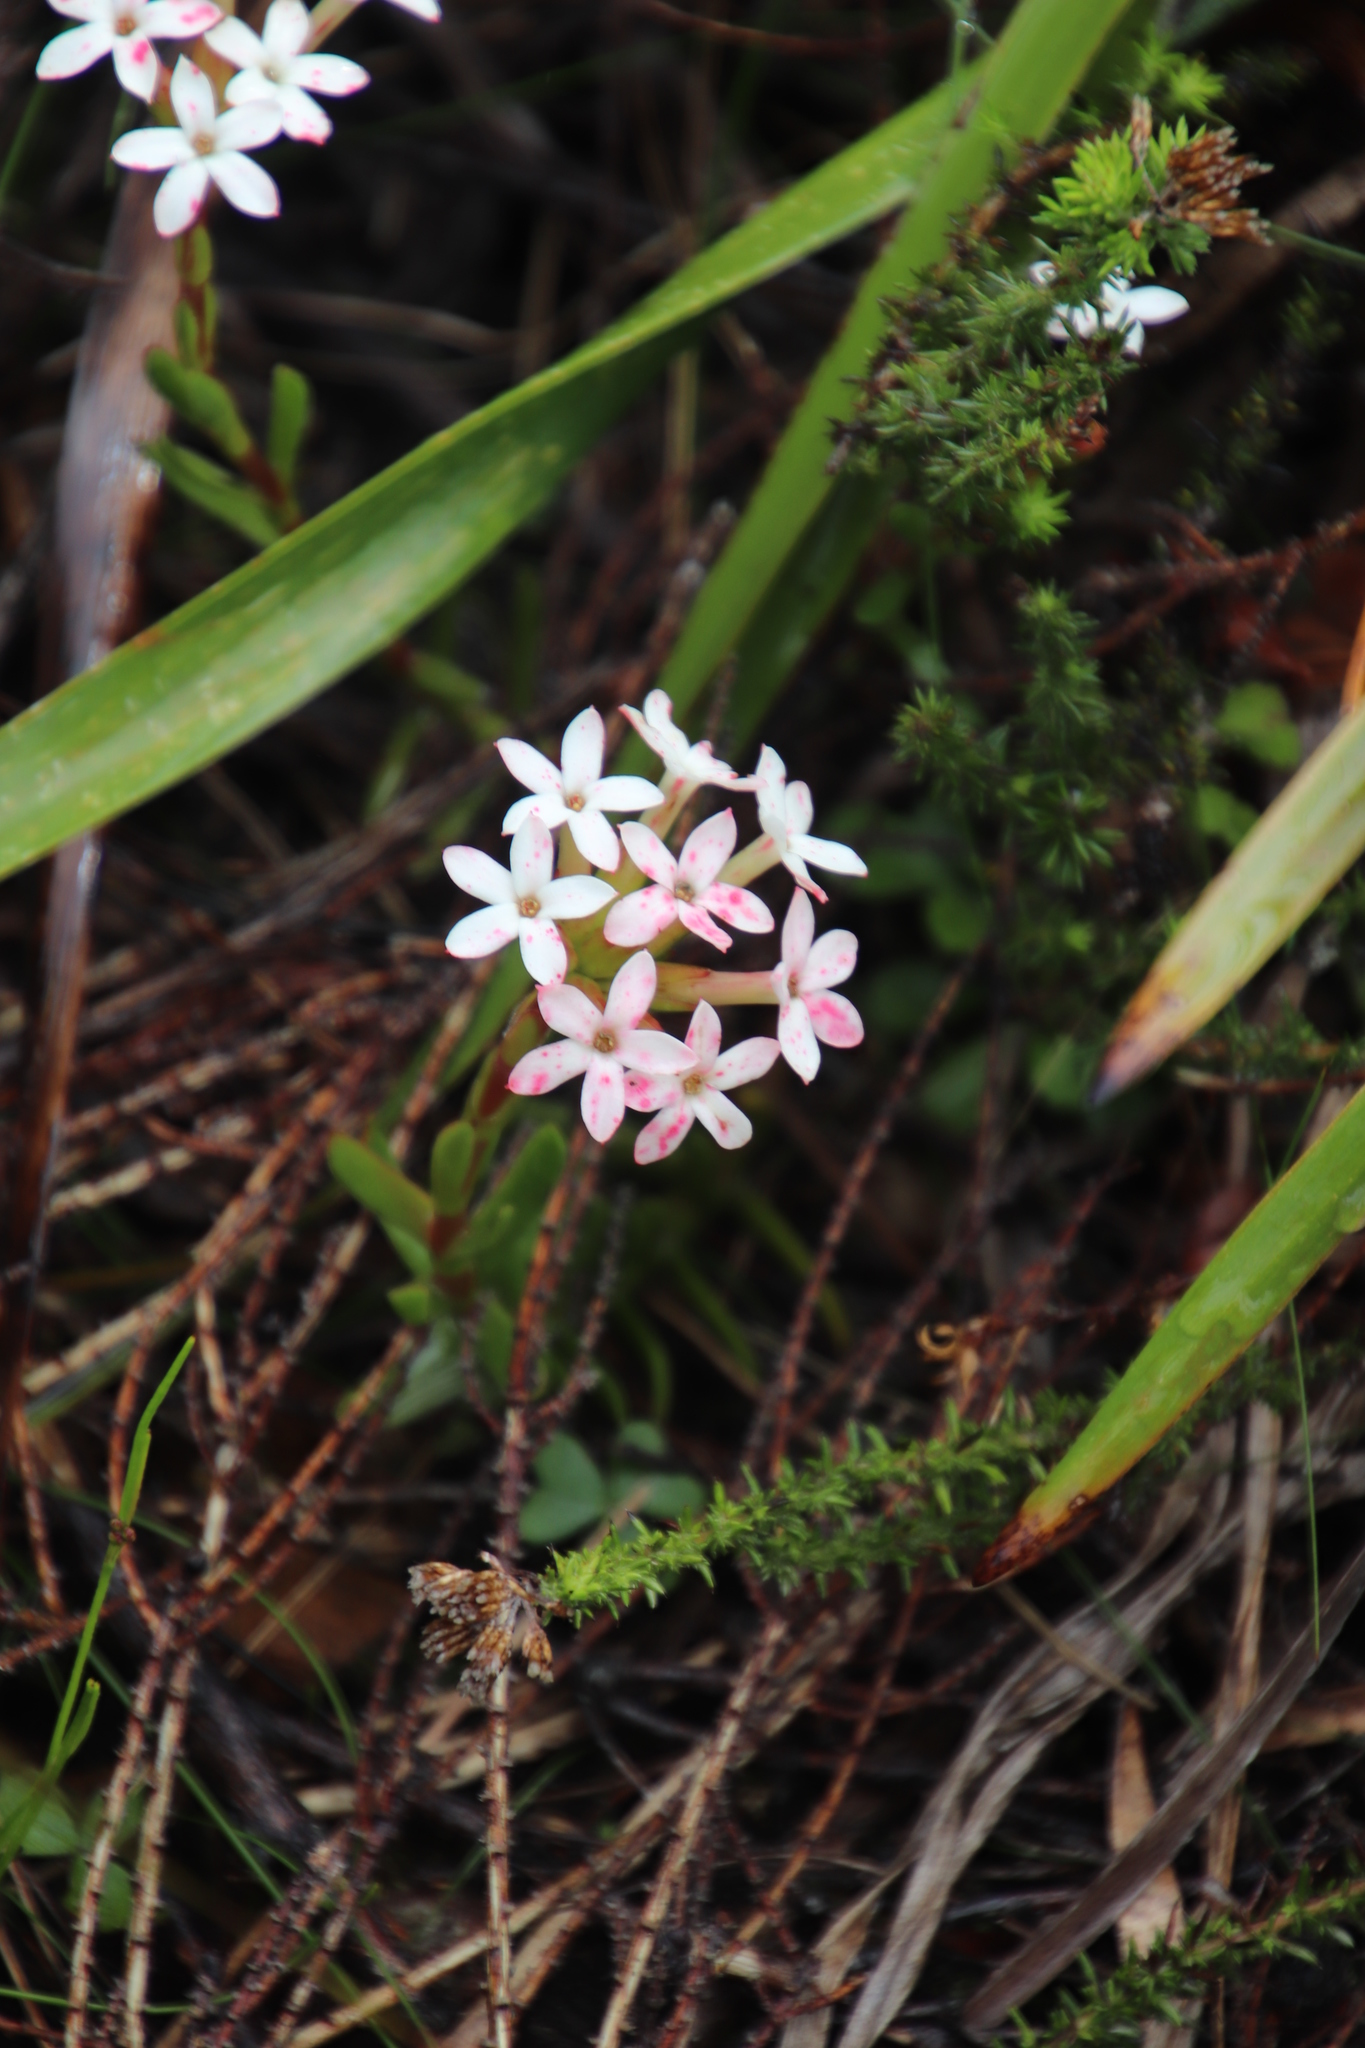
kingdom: Plantae
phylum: Tracheophyta
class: Magnoliopsida
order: Saxifragales
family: Crassulaceae
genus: Crassula
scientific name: Crassula fascicularis
